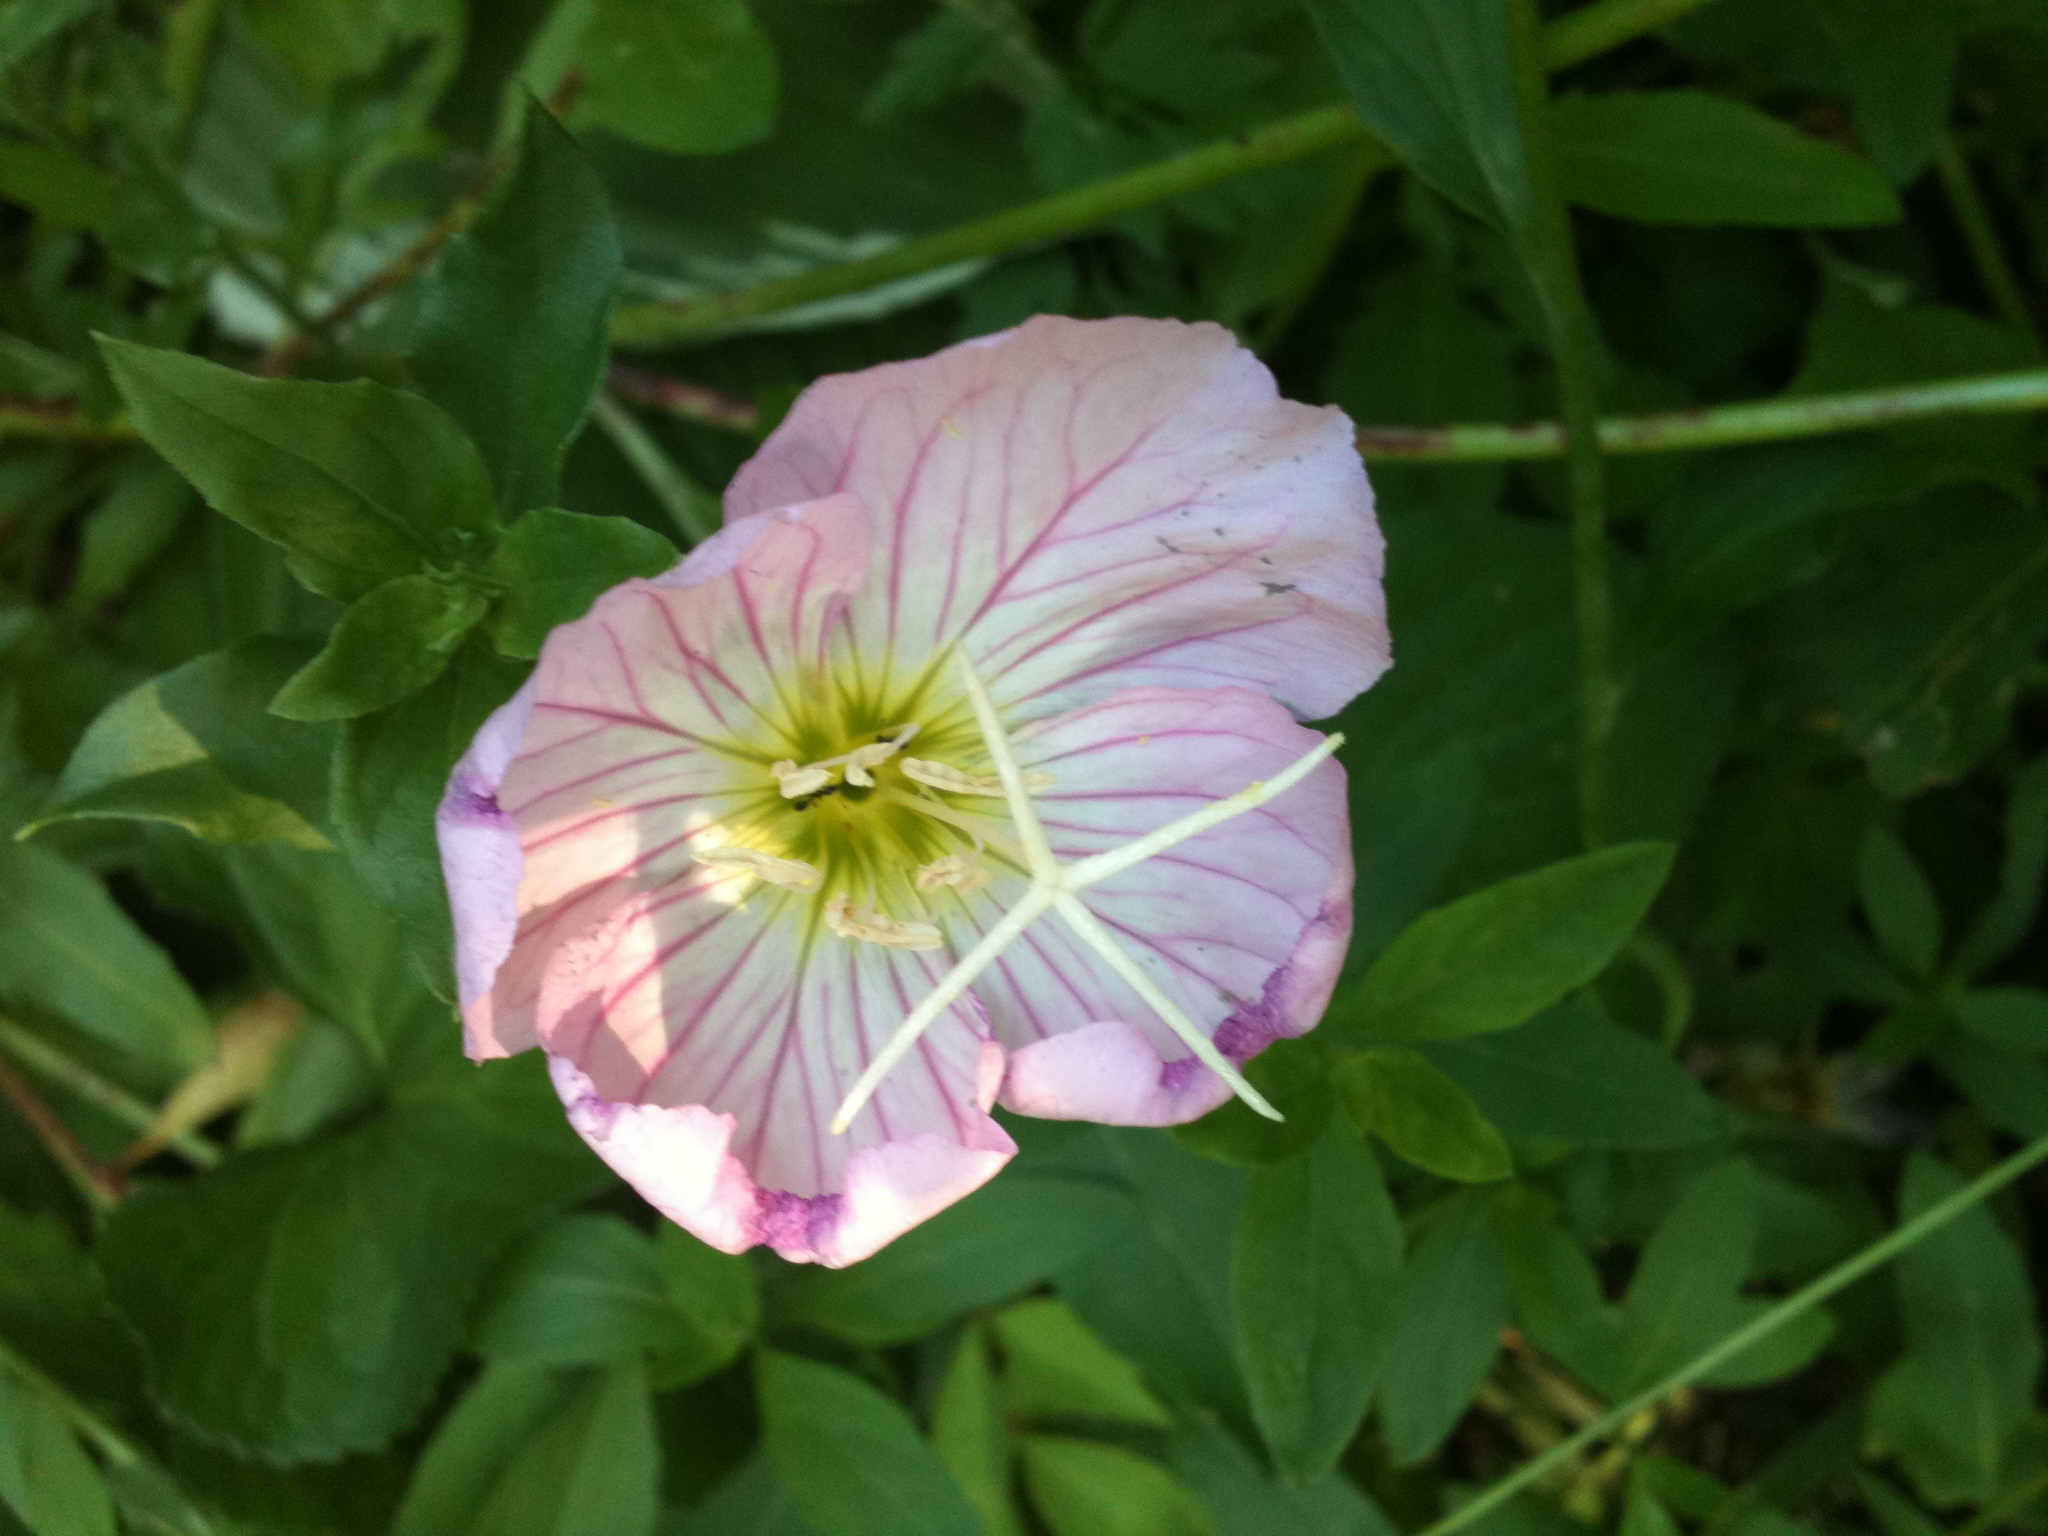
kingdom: Plantae
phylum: Tracheophyta
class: Magnoliopsida
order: Myrtales
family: Onagraceae
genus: Oenothera
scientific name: Oenothera speciosa
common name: White evening-primrose
